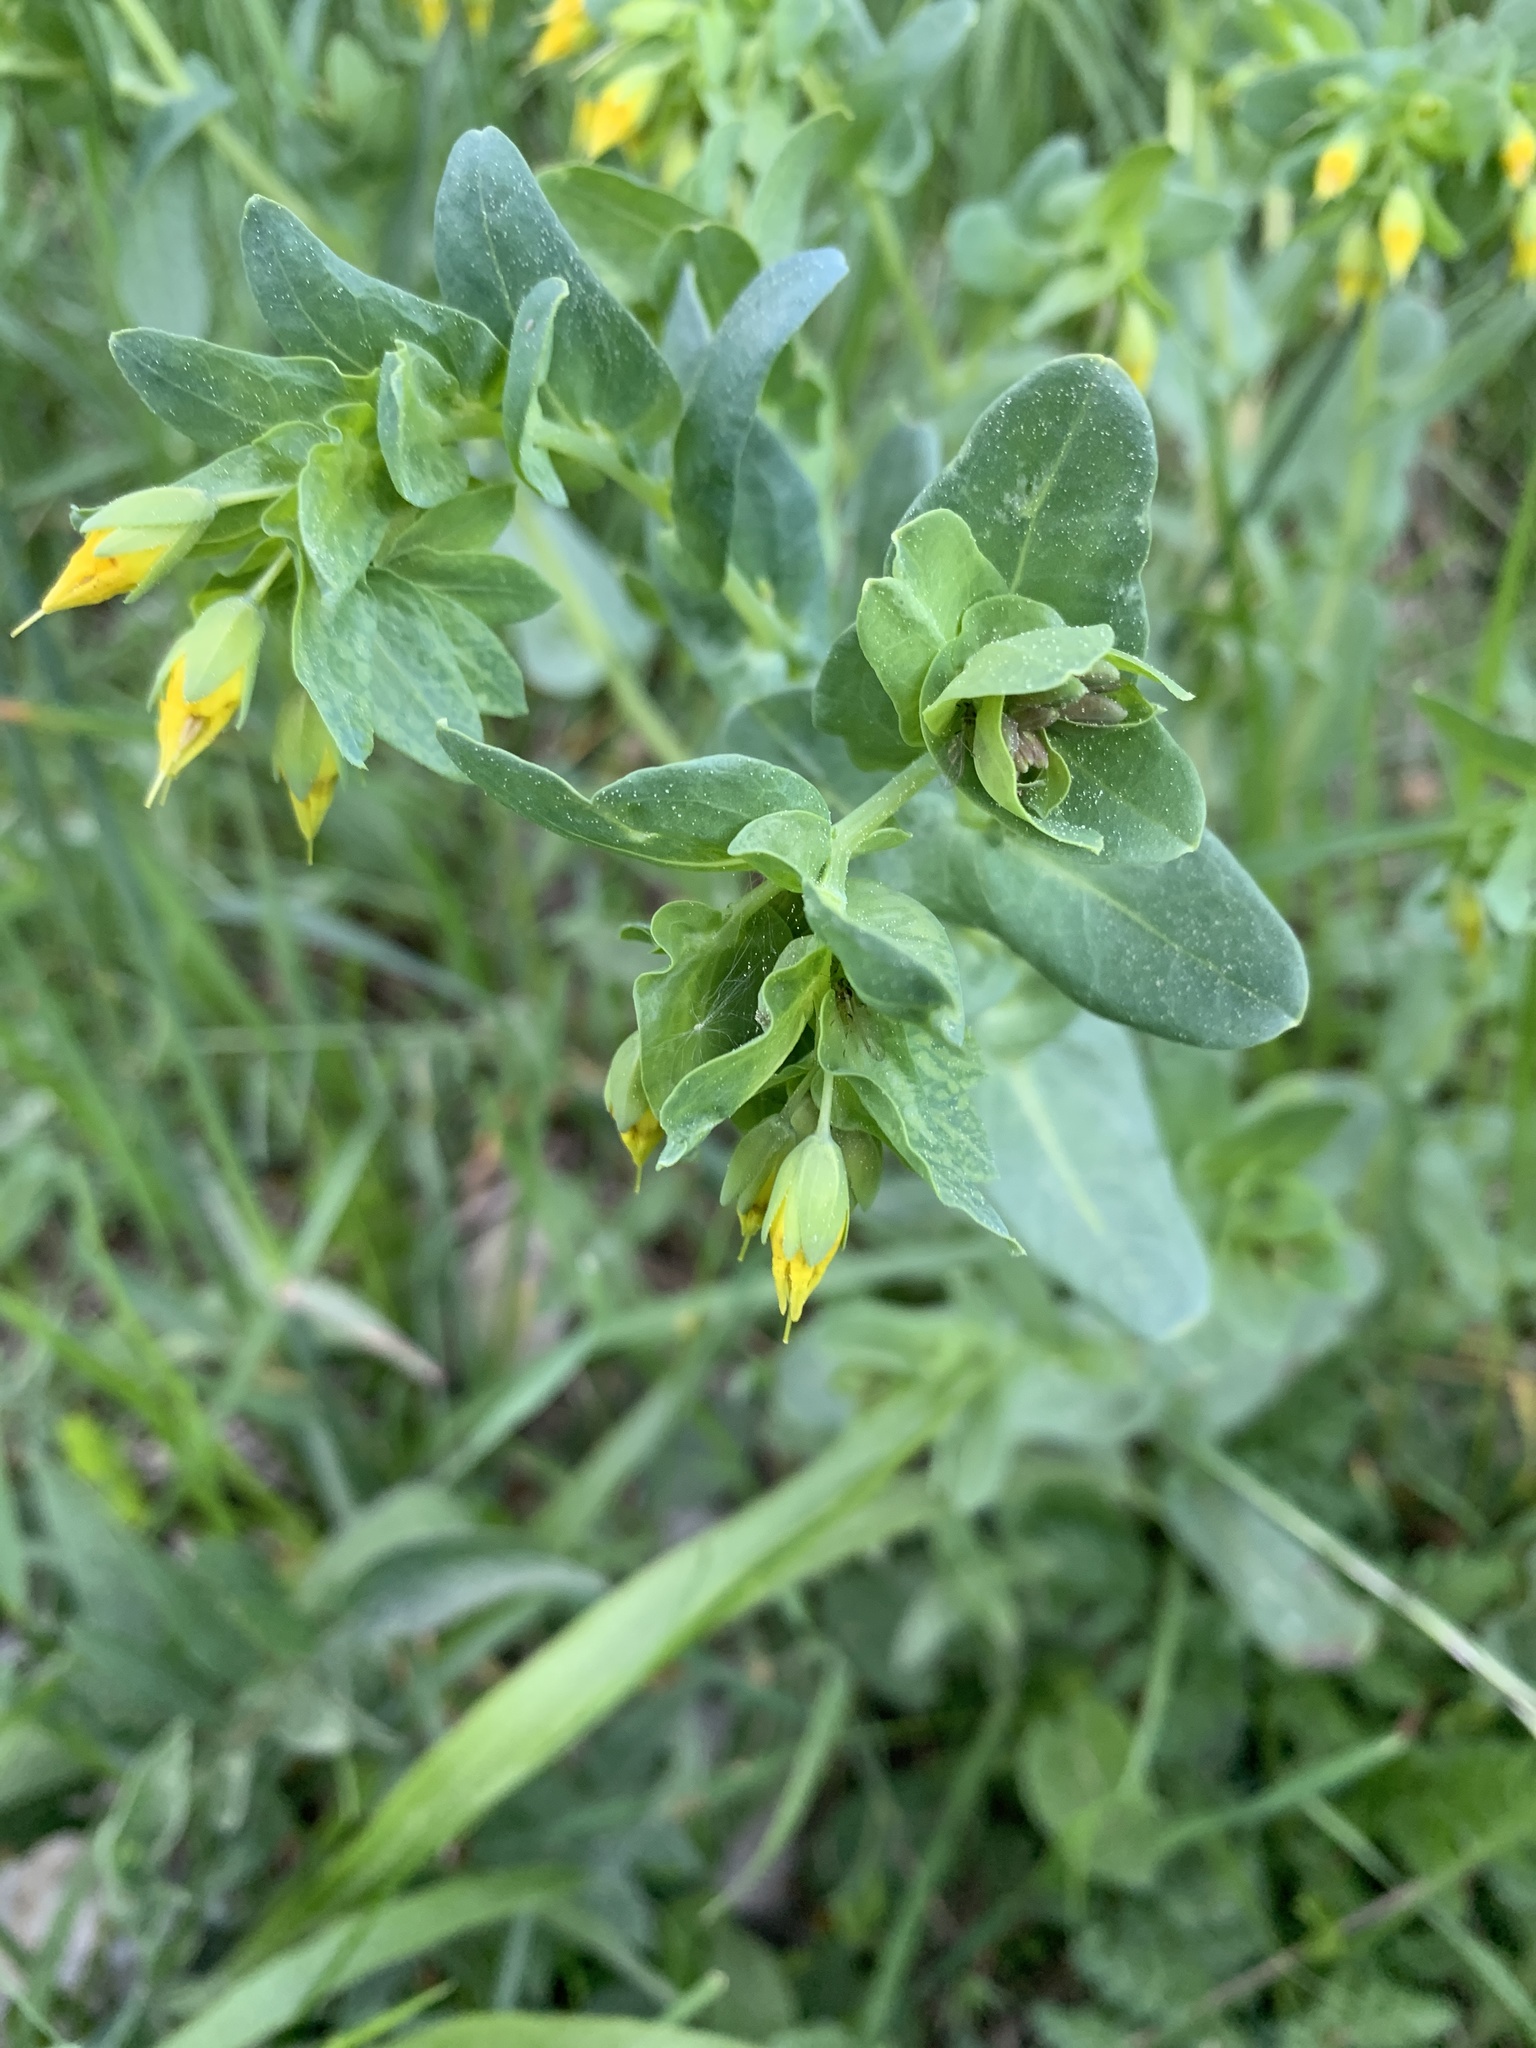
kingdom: Plantae
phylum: Tracheophyta
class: Magnoliopsida
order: Boraginales
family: Boraginaceae
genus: Cerinthe
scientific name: Cerinthe minor
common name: Lesser honeywort
